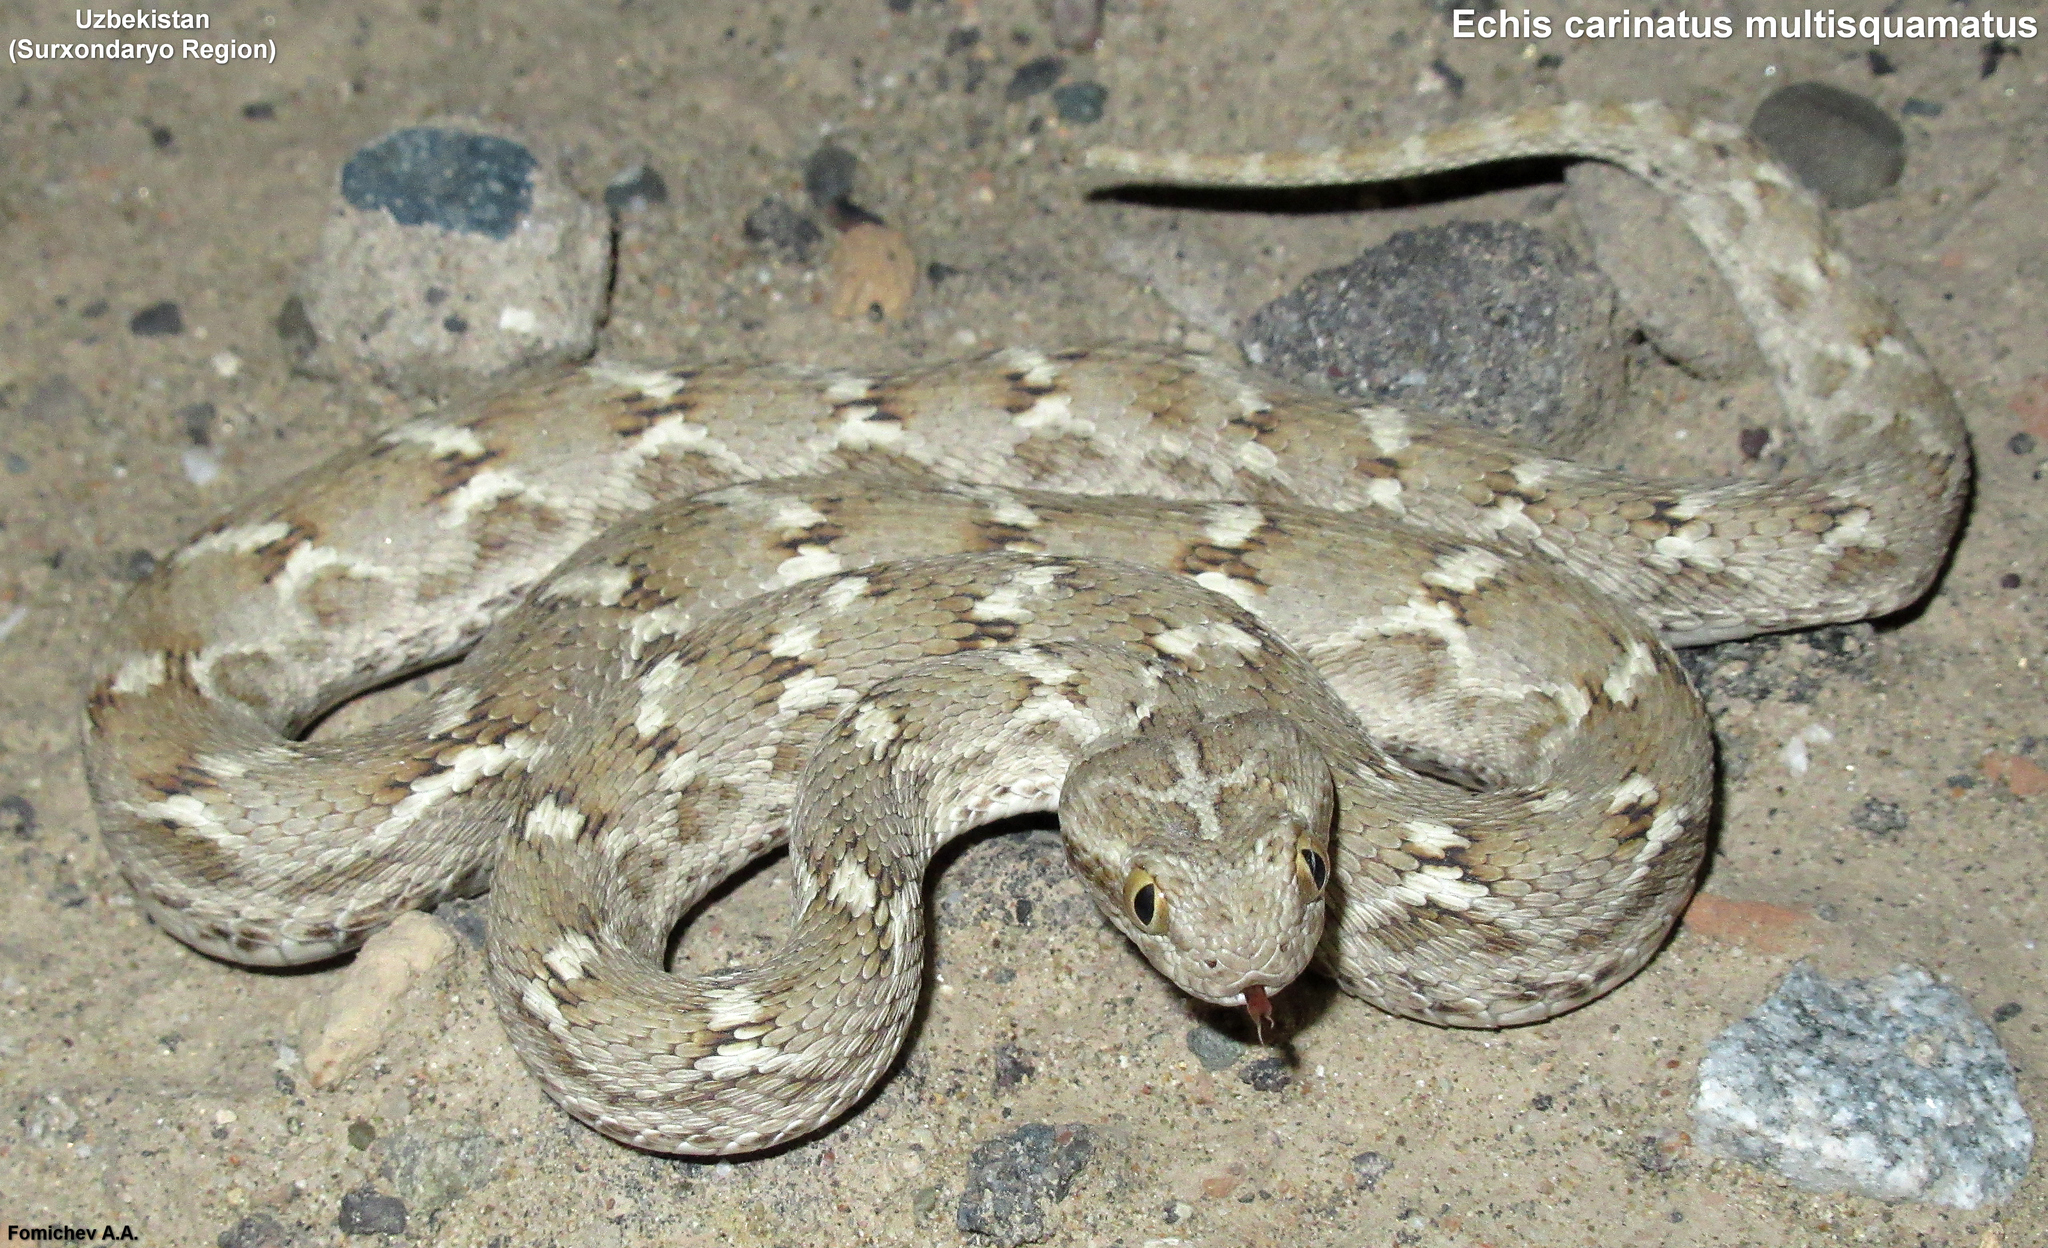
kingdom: Animalia
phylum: Chordata
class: Squamata
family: Viperidae
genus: Echis
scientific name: Echis carinatus
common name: Saw-scaled viper
